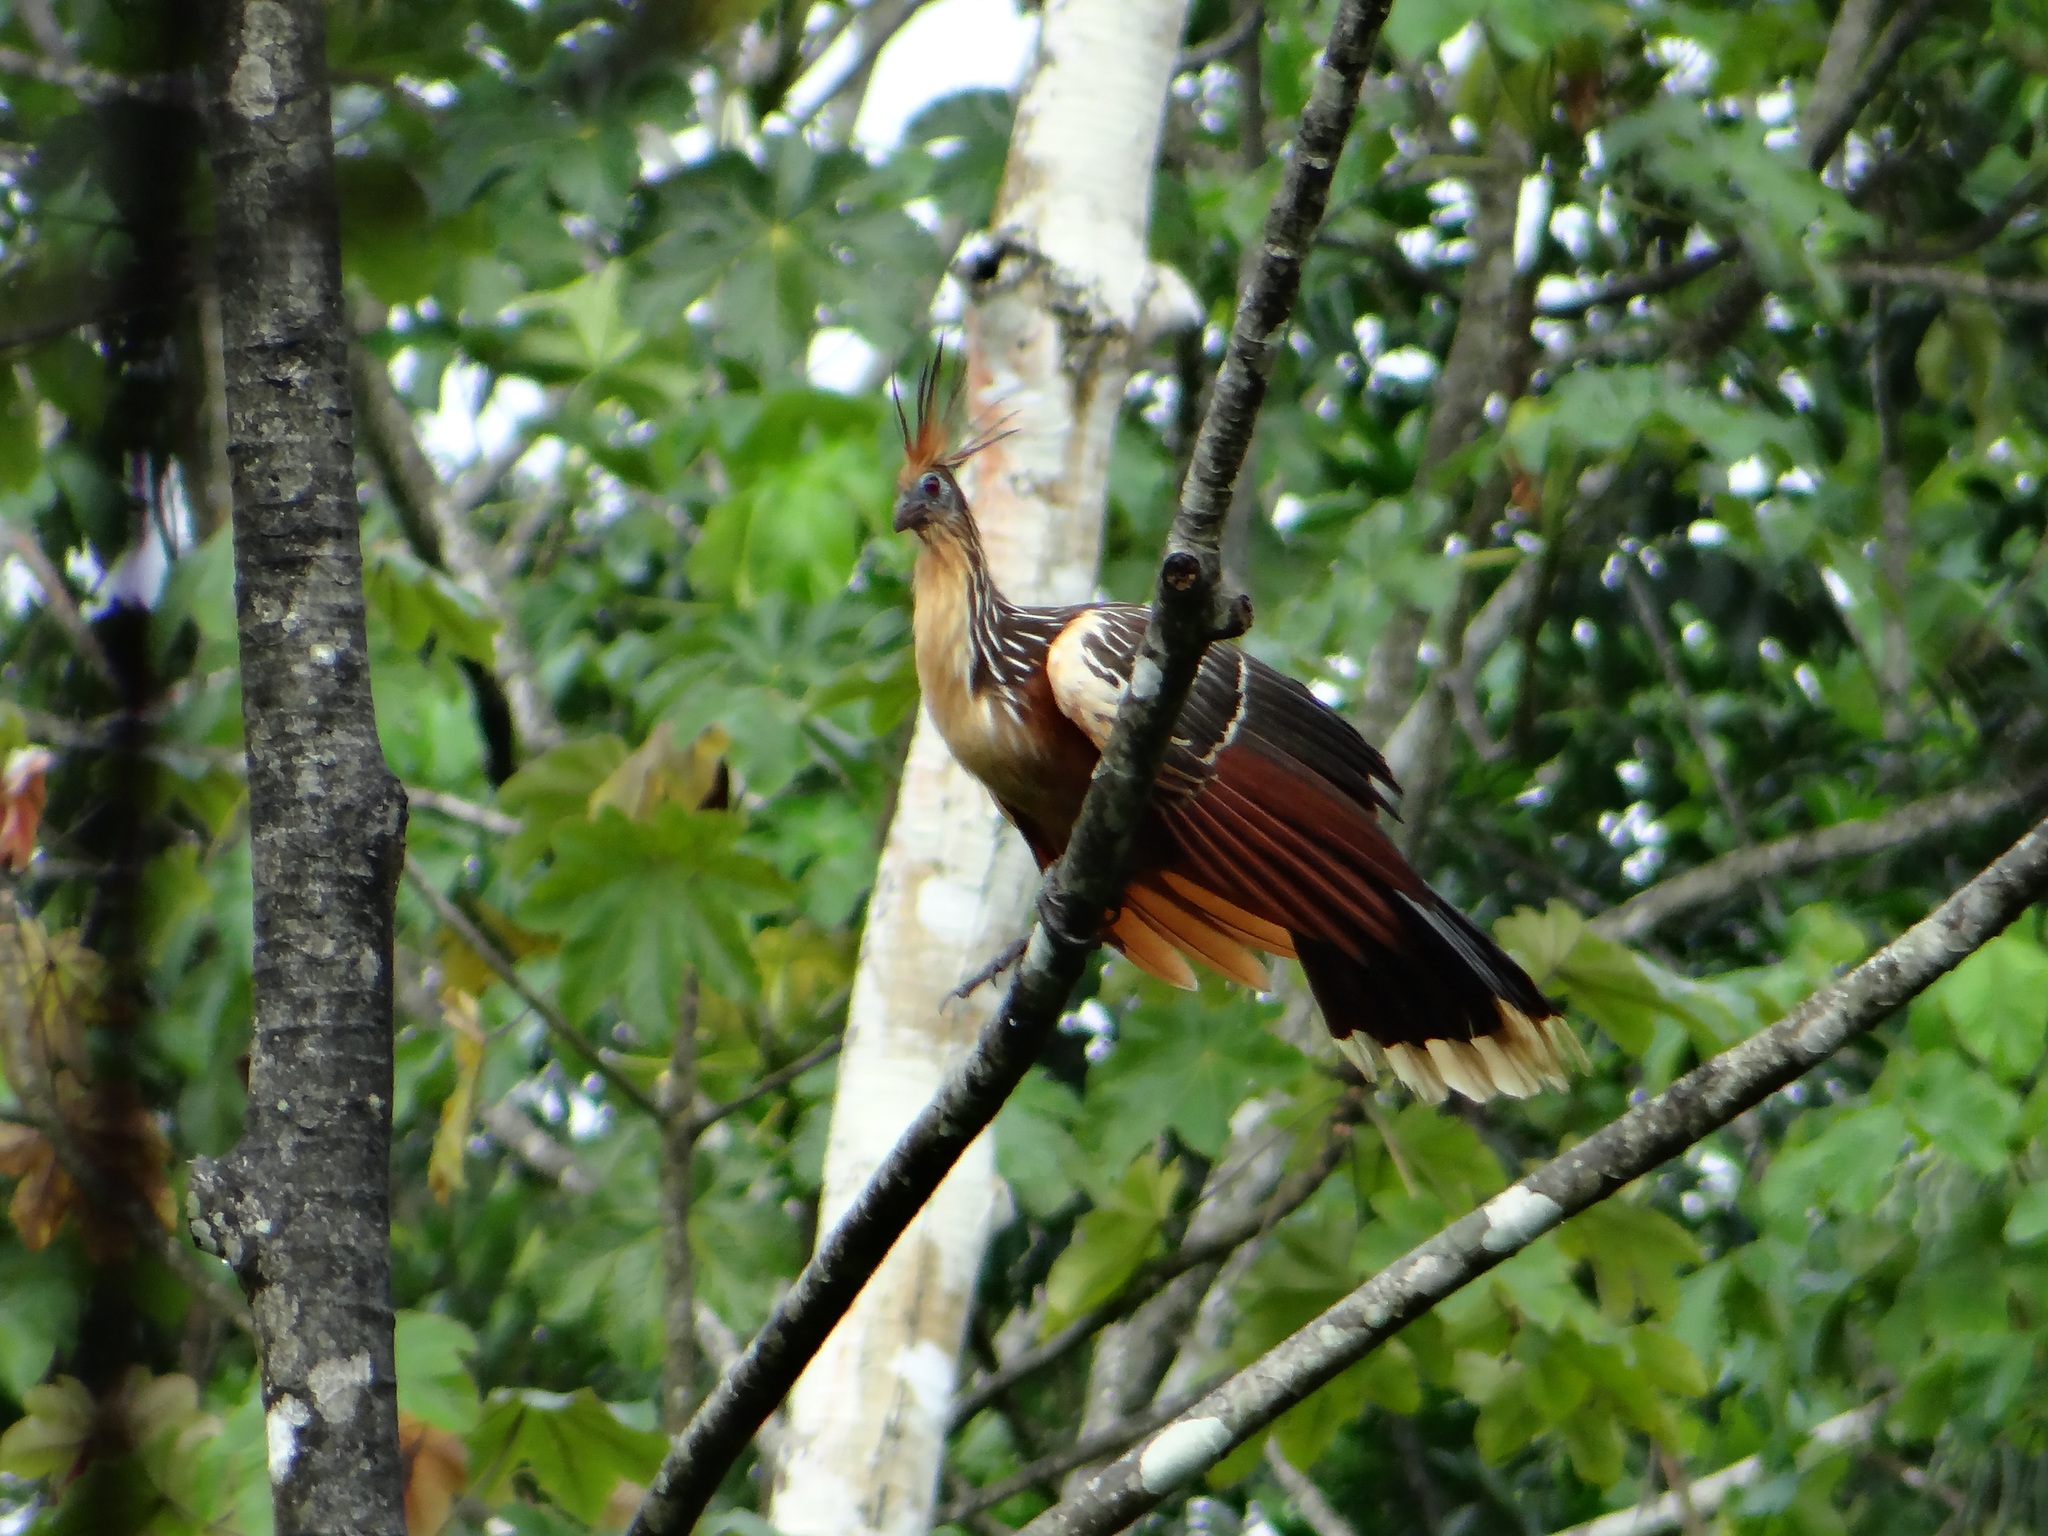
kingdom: Animalia
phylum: Chordata
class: Aves
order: Opisthocomiformes
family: Opisthocomidae
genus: Opisthocomus
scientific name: Opisthocomus hoazin
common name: Hoatzin
